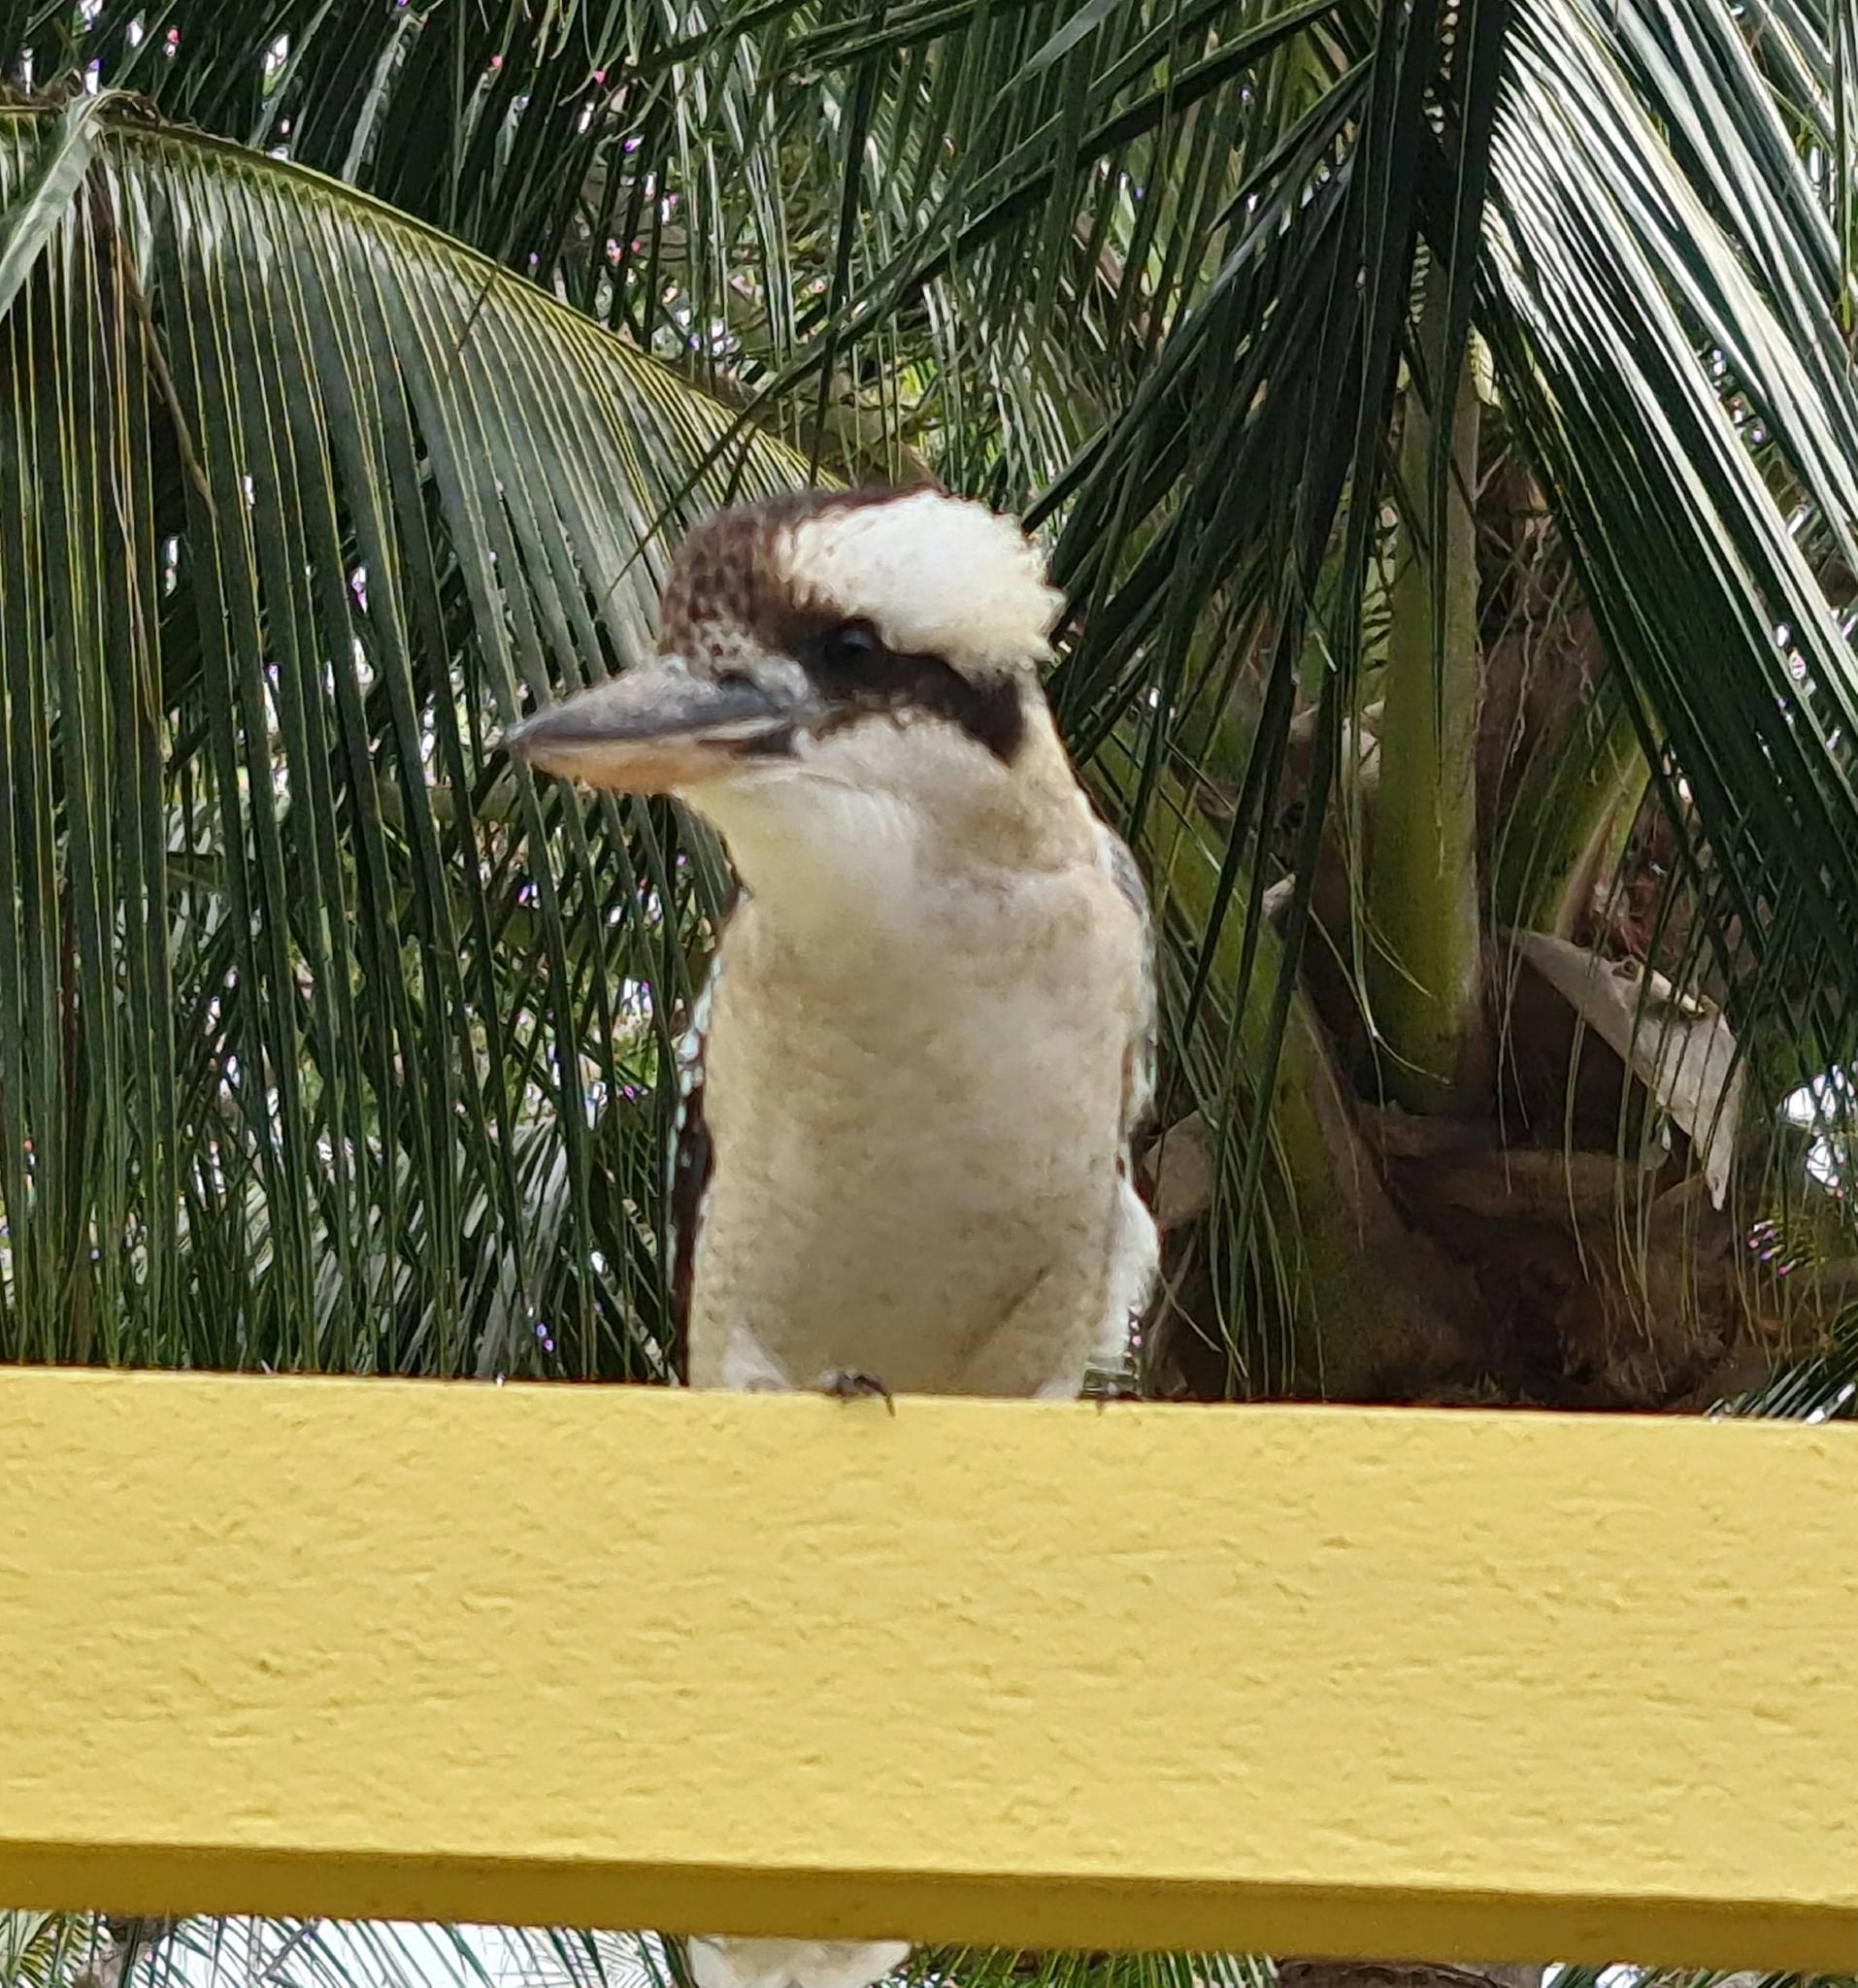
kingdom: Animalia
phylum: Chordata
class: Aves
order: Coraciiformes
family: Alcedinidae
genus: Dacelo
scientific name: Dacelo novaeguineae
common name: Laughing kookaburra
